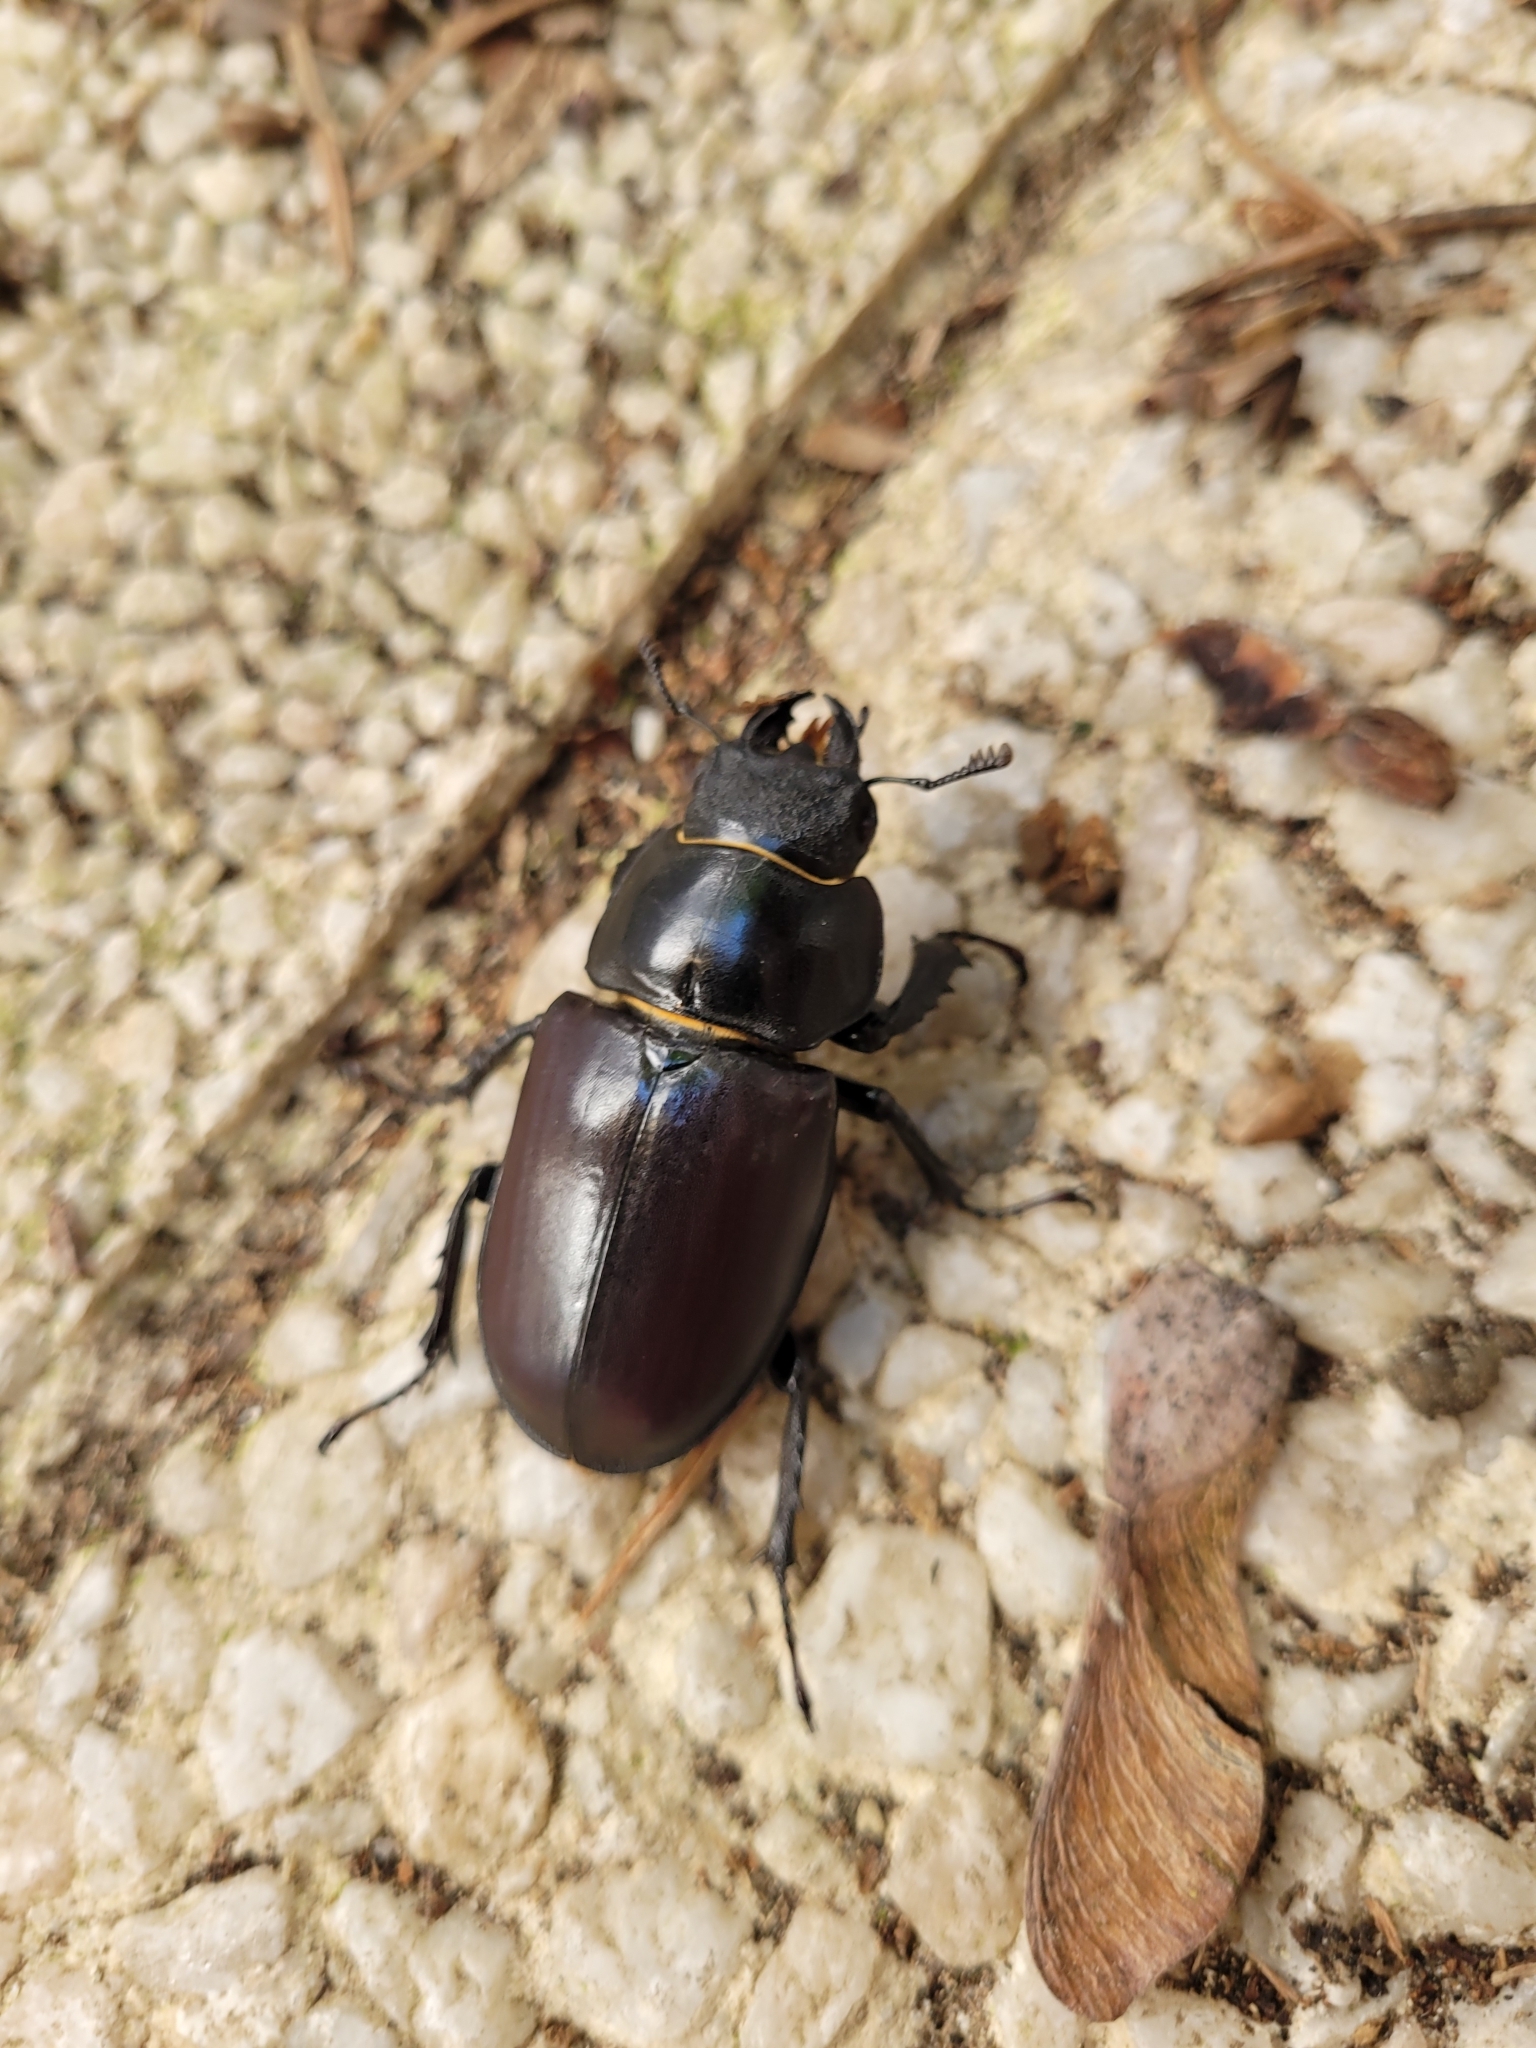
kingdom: Animalia
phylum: Arthropoda
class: Insecta
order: Coleoptera
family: Lucanidae
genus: Lucanus
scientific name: Lucanus cervus
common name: Stag beetle
